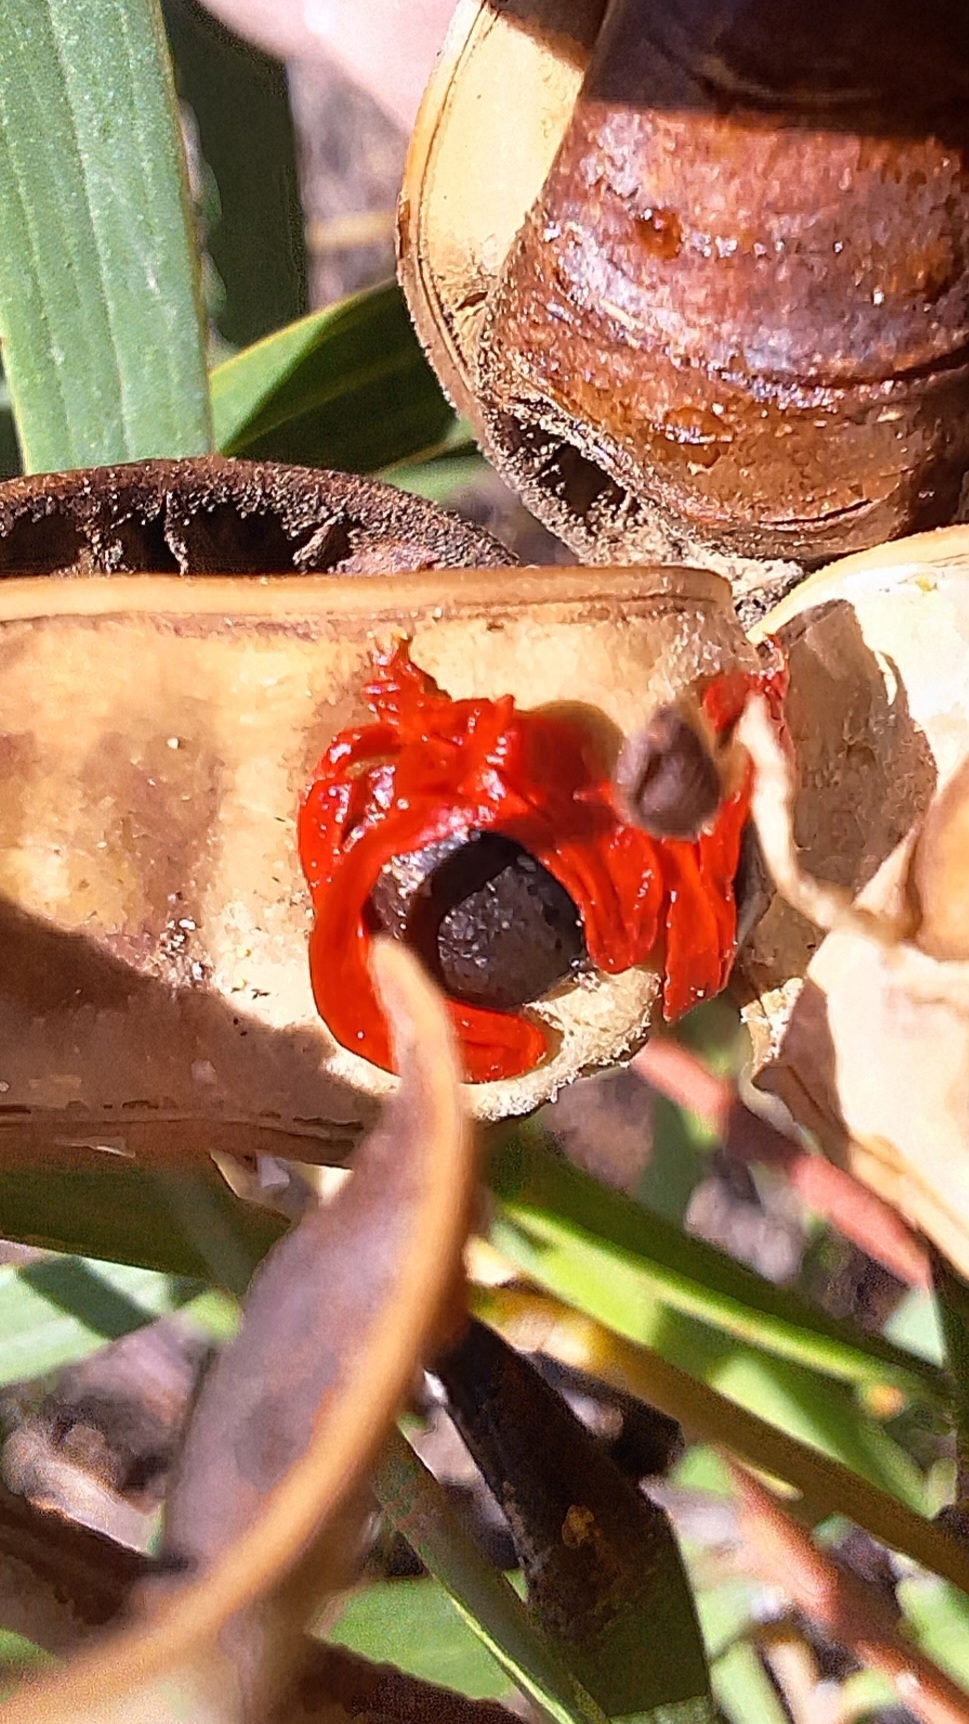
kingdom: Plantae
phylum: Tracheophyta
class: Magnoliopsida
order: Fabales
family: Fabaceae
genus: Acacia
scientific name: Acacia cyclops
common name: Coastal wattle
